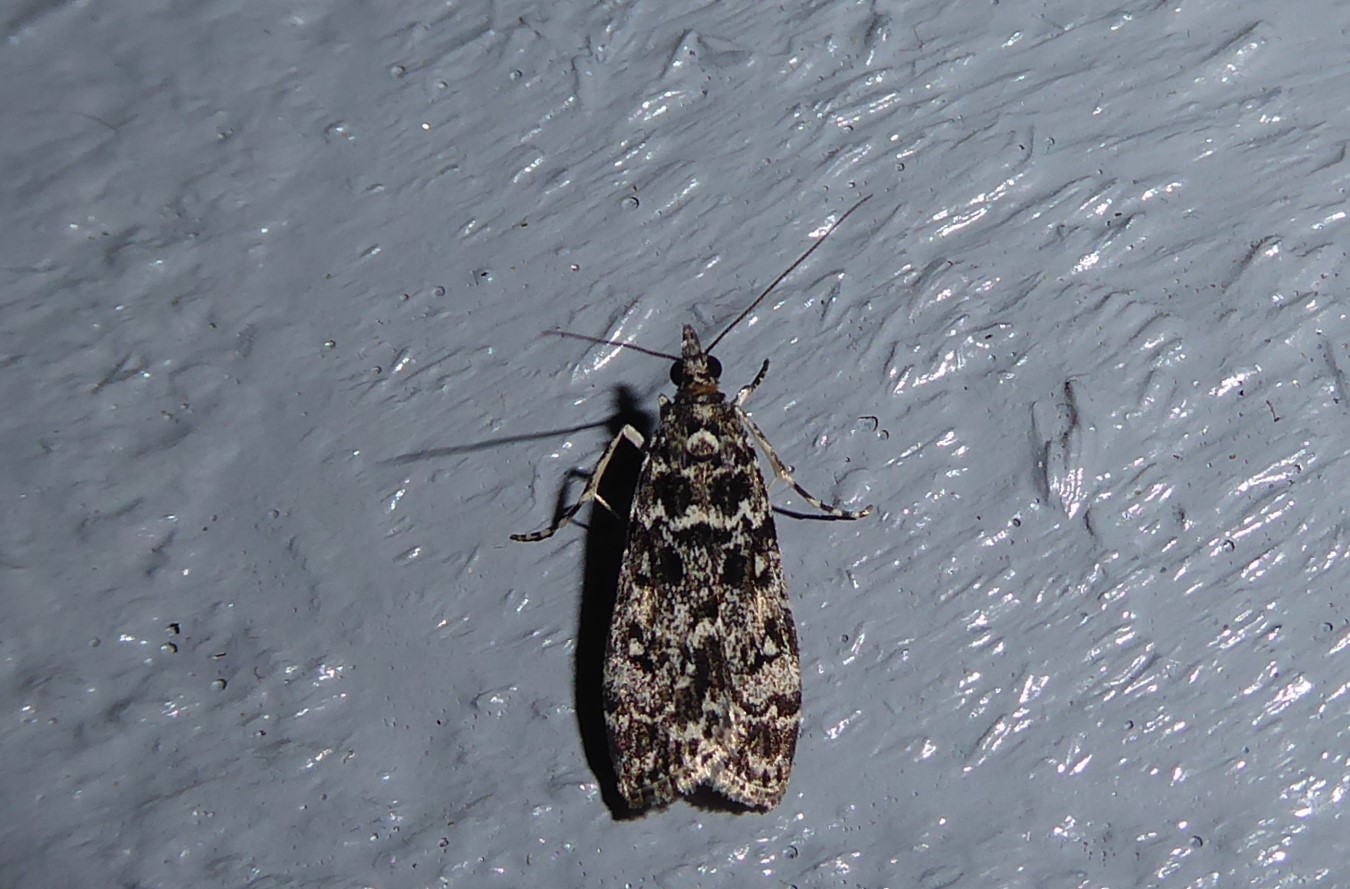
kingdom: Animalia
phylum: Arthropoda
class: Insecta
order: Lepidoptera
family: Crambidae
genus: Eudonia
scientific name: Eudonia philerga
